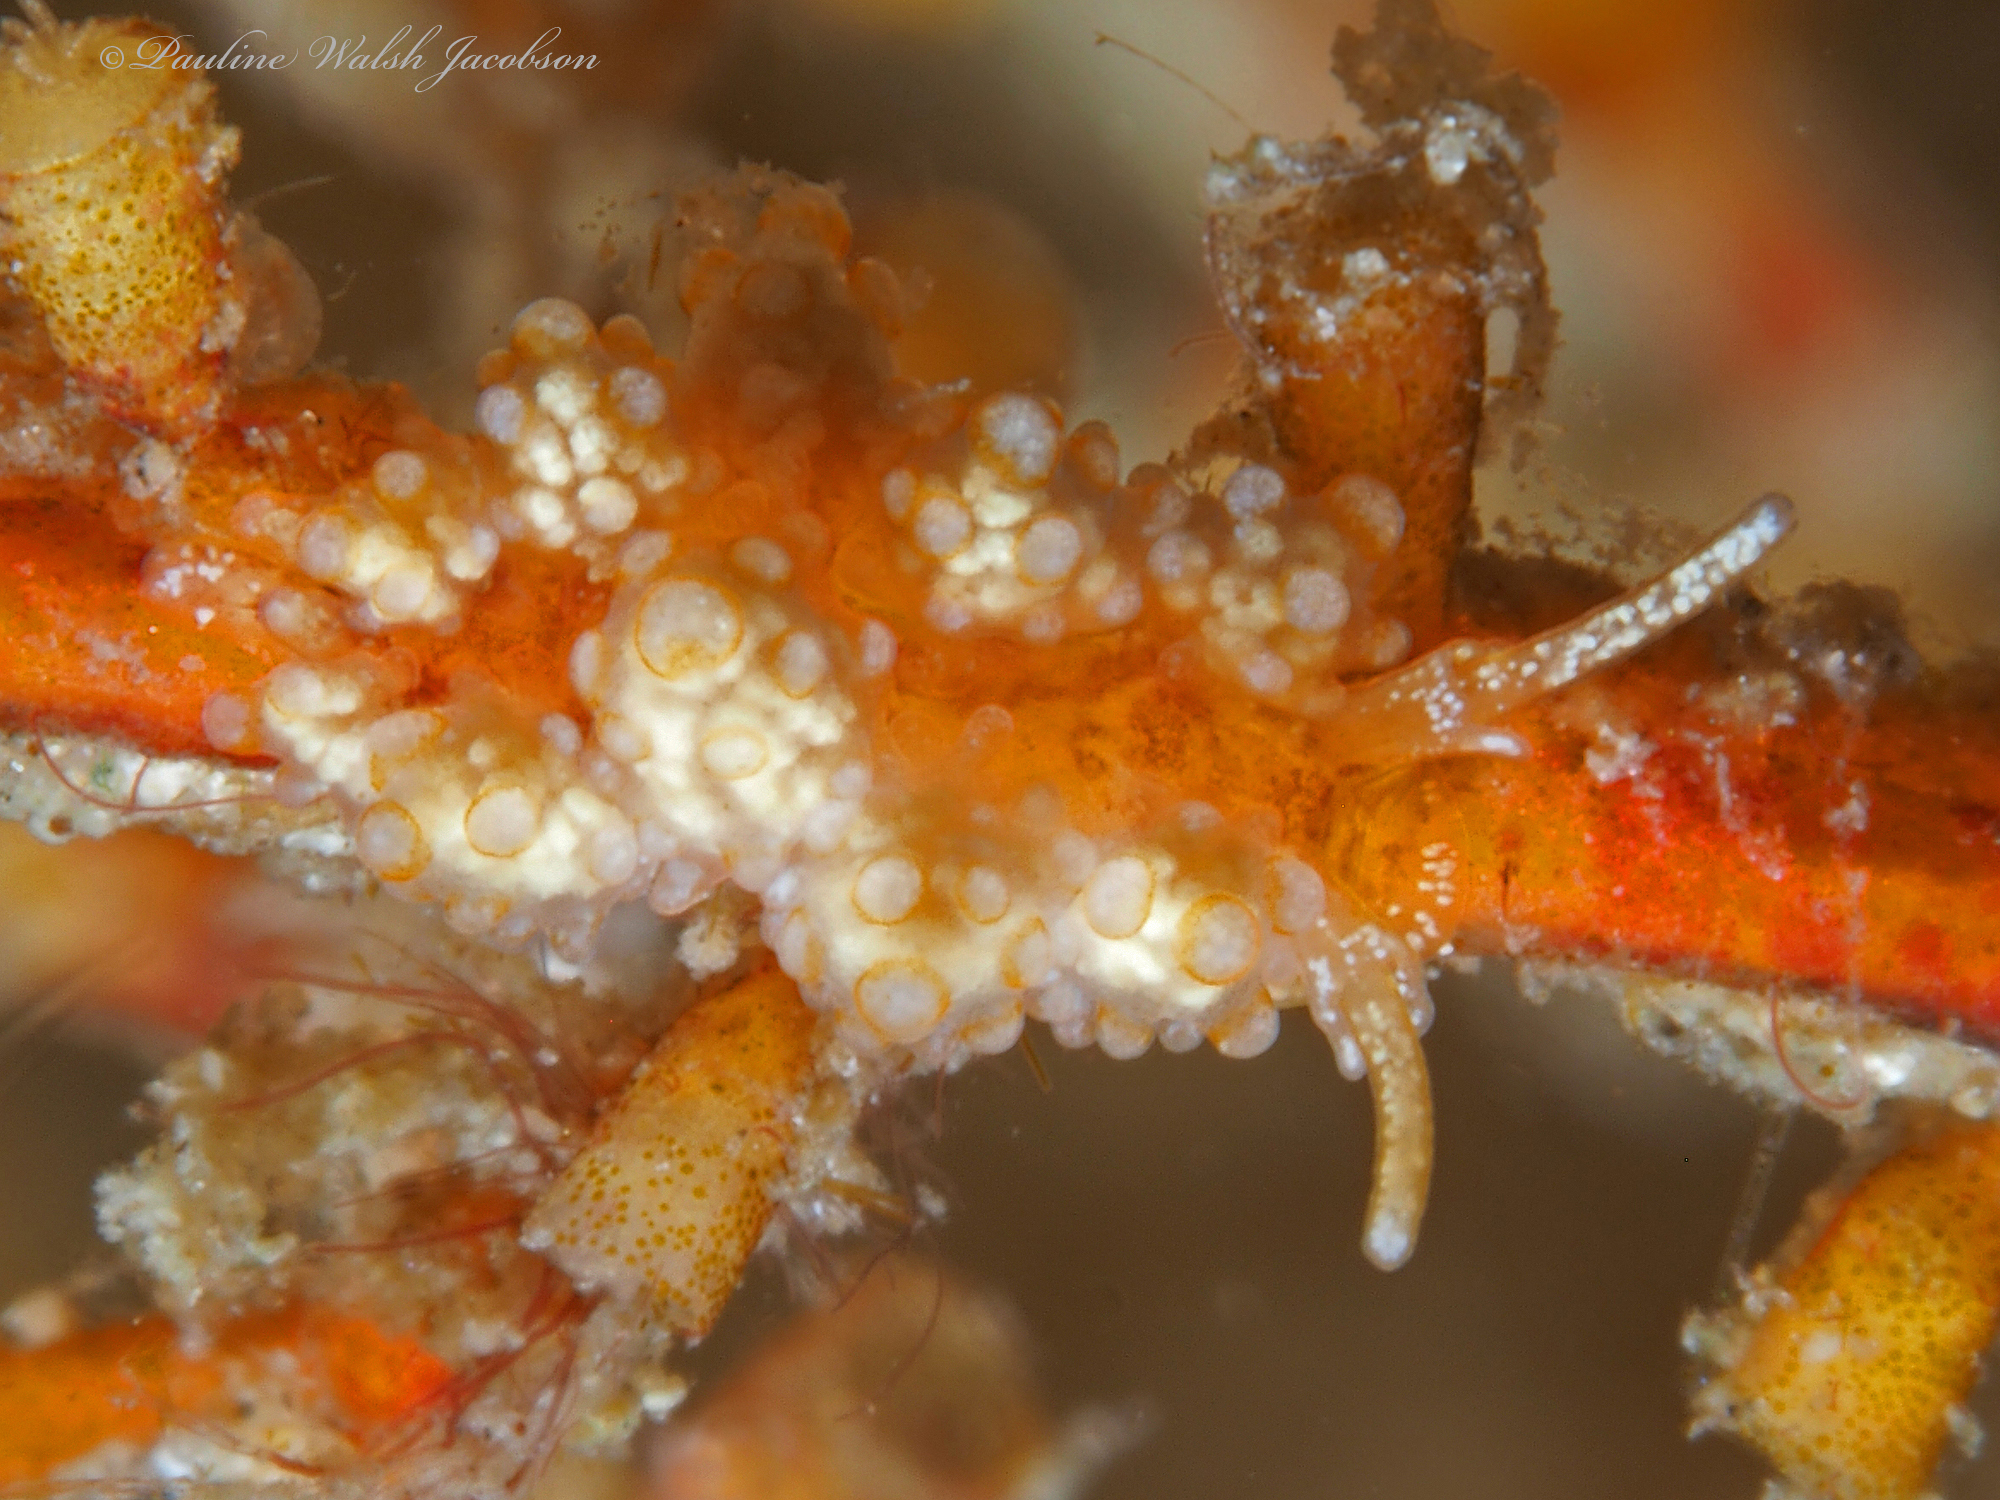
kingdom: Animalia
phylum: Mollusca
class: Gastropoda
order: Nudibranchia
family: Dotidae
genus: Doto
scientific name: Doto torrelavega
